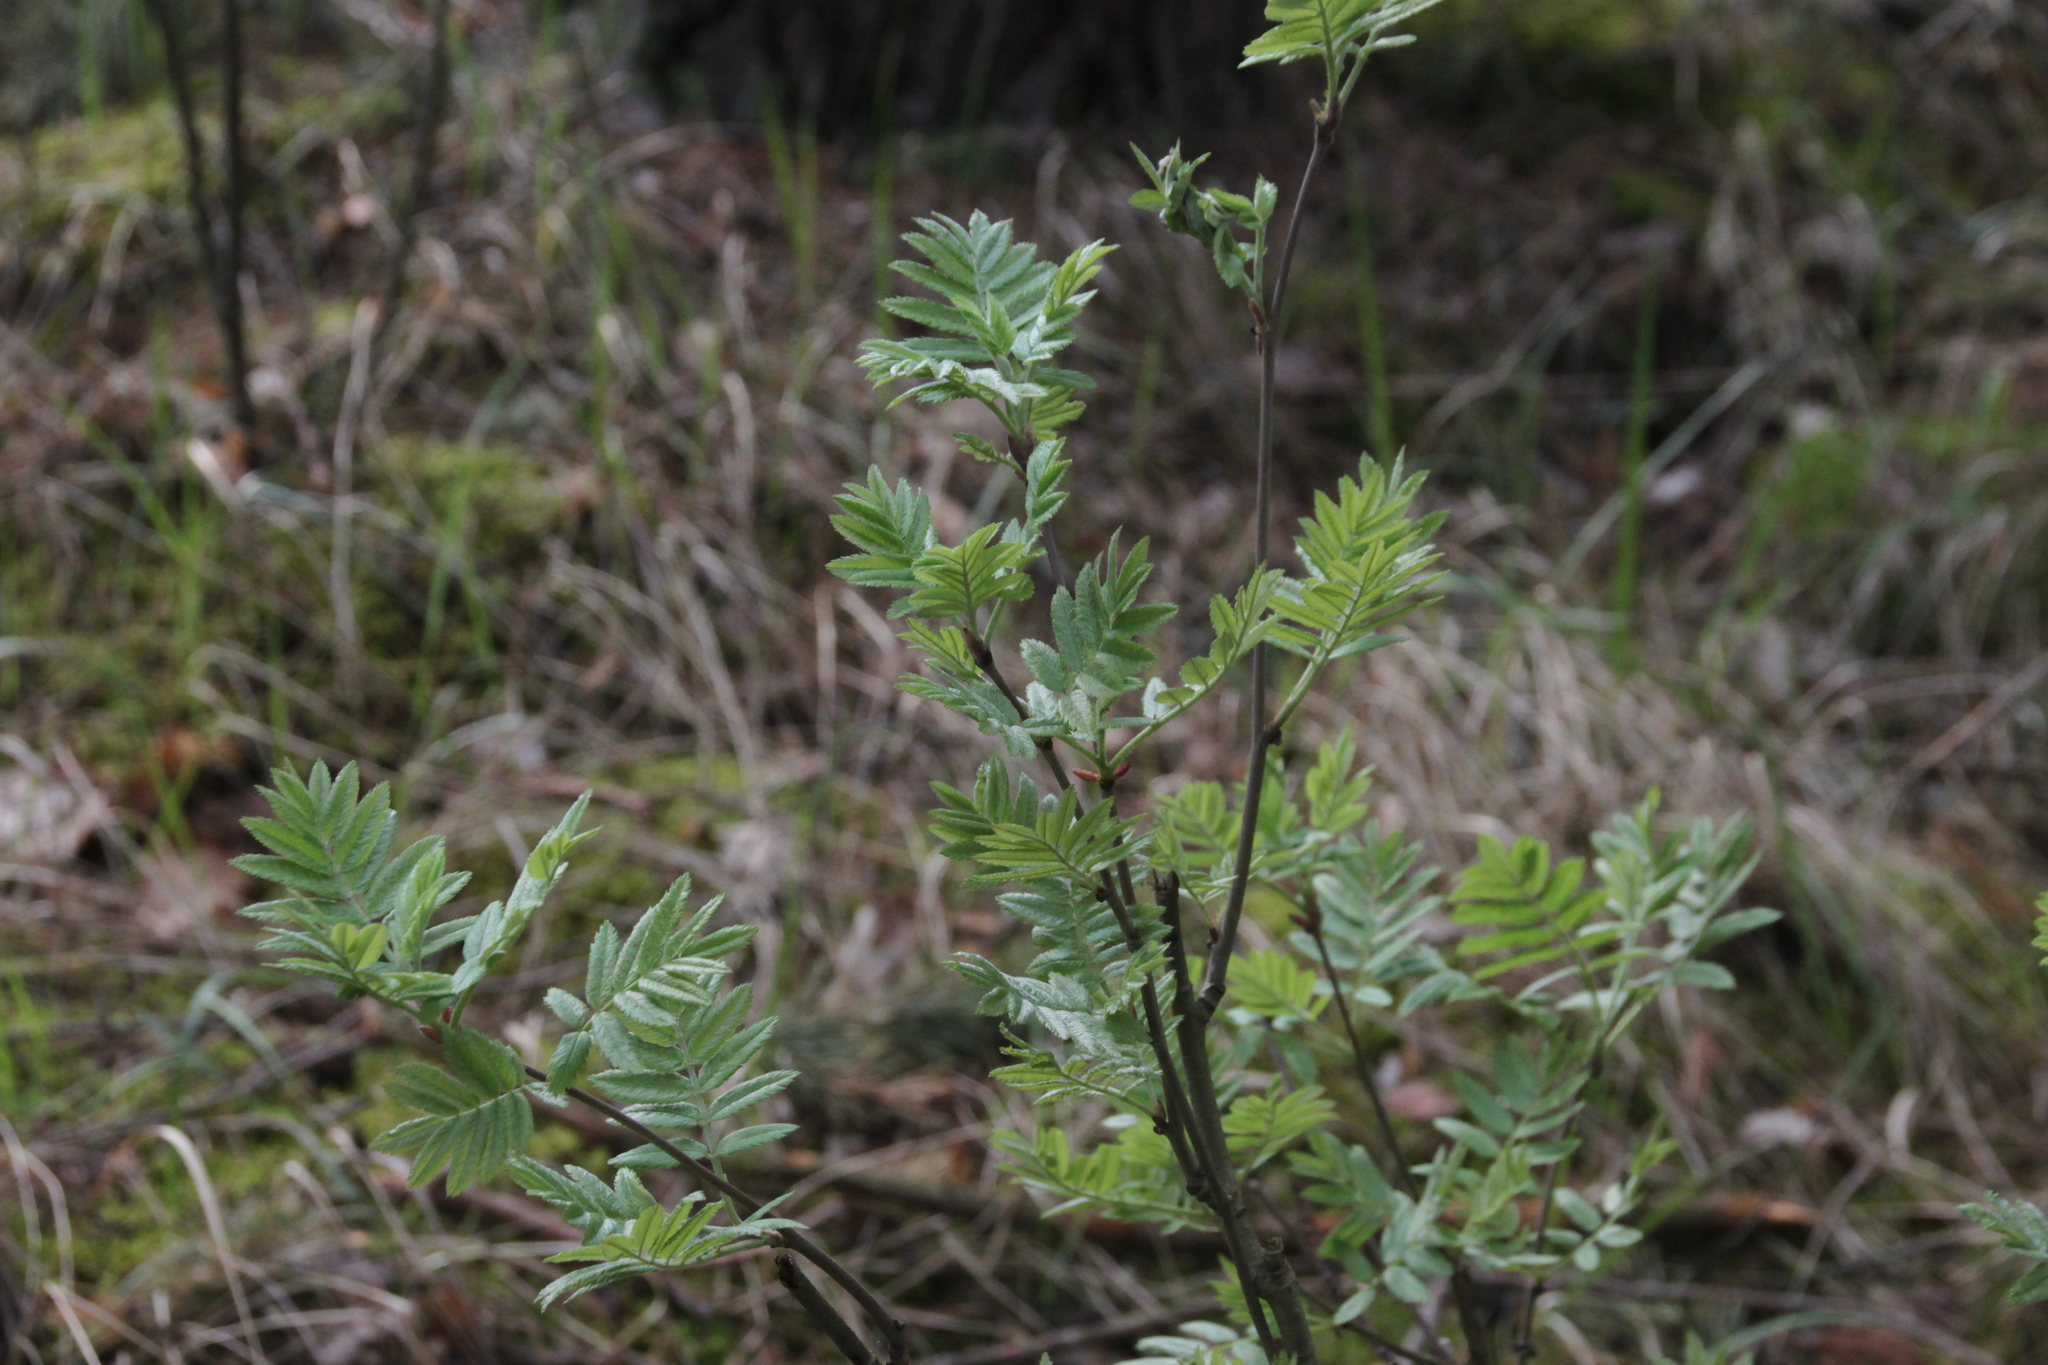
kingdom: Plantae
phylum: Tracheophyta
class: Magnoliopsida
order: Rosales
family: Rosaceae
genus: Sorbus
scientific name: Sorbus aucuparia
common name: Rowan
